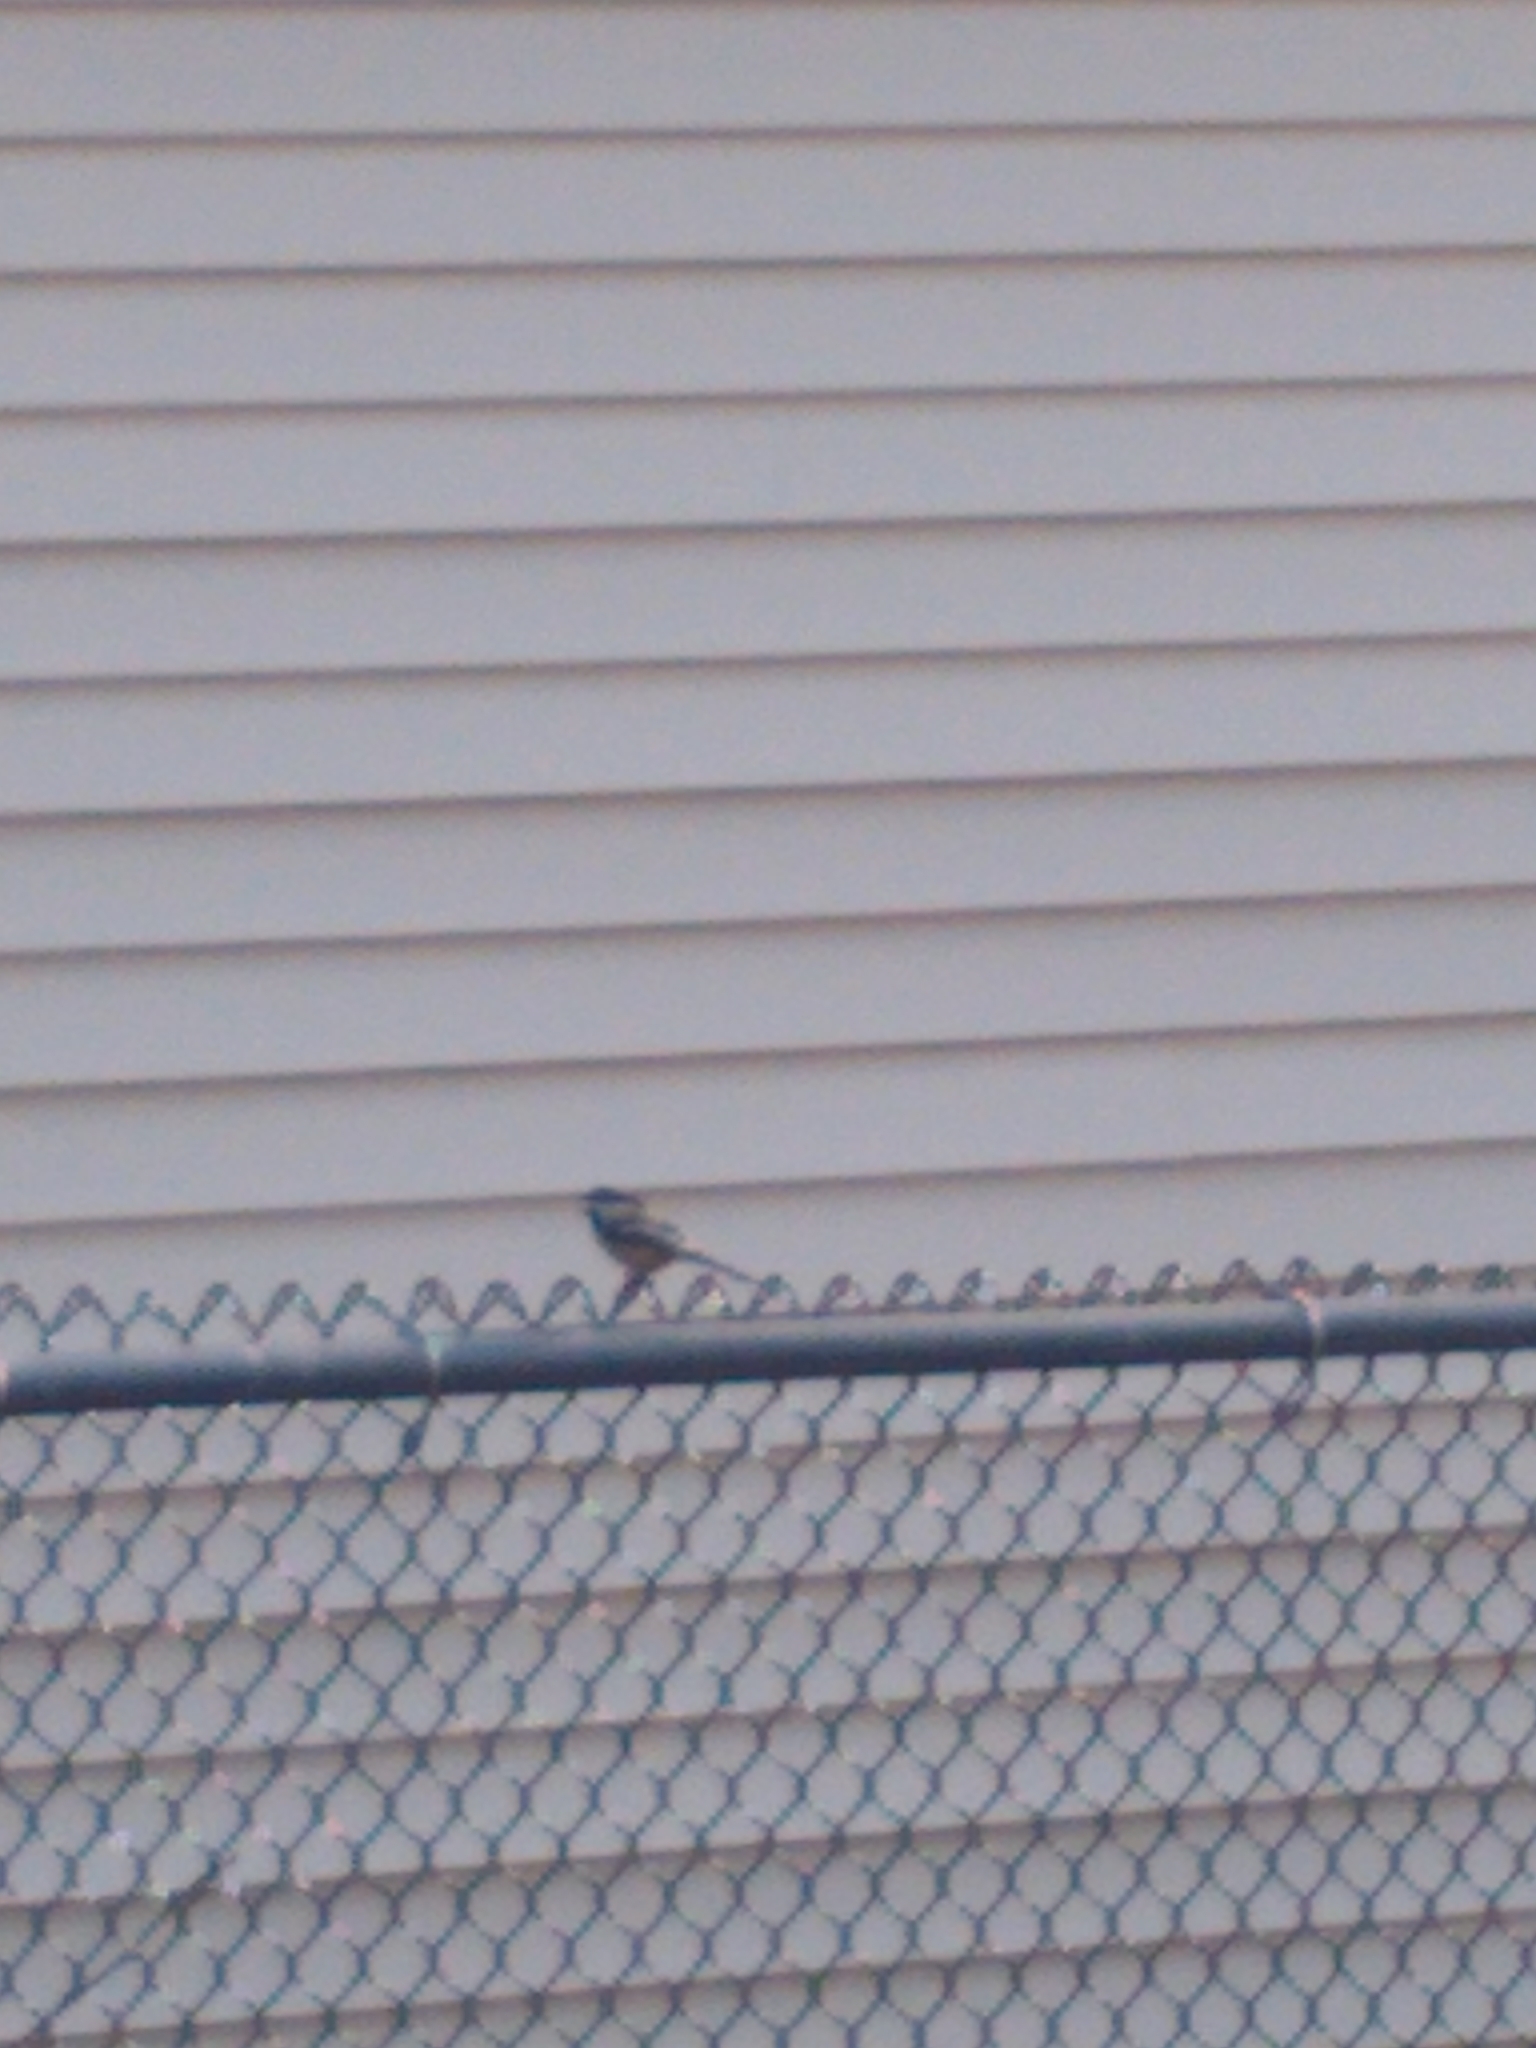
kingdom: Animalia
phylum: Chordata
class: Aves
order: Passeriformes
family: Paridae
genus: Poecile
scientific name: Poecile atricapillus
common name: Black-capped chickadee
